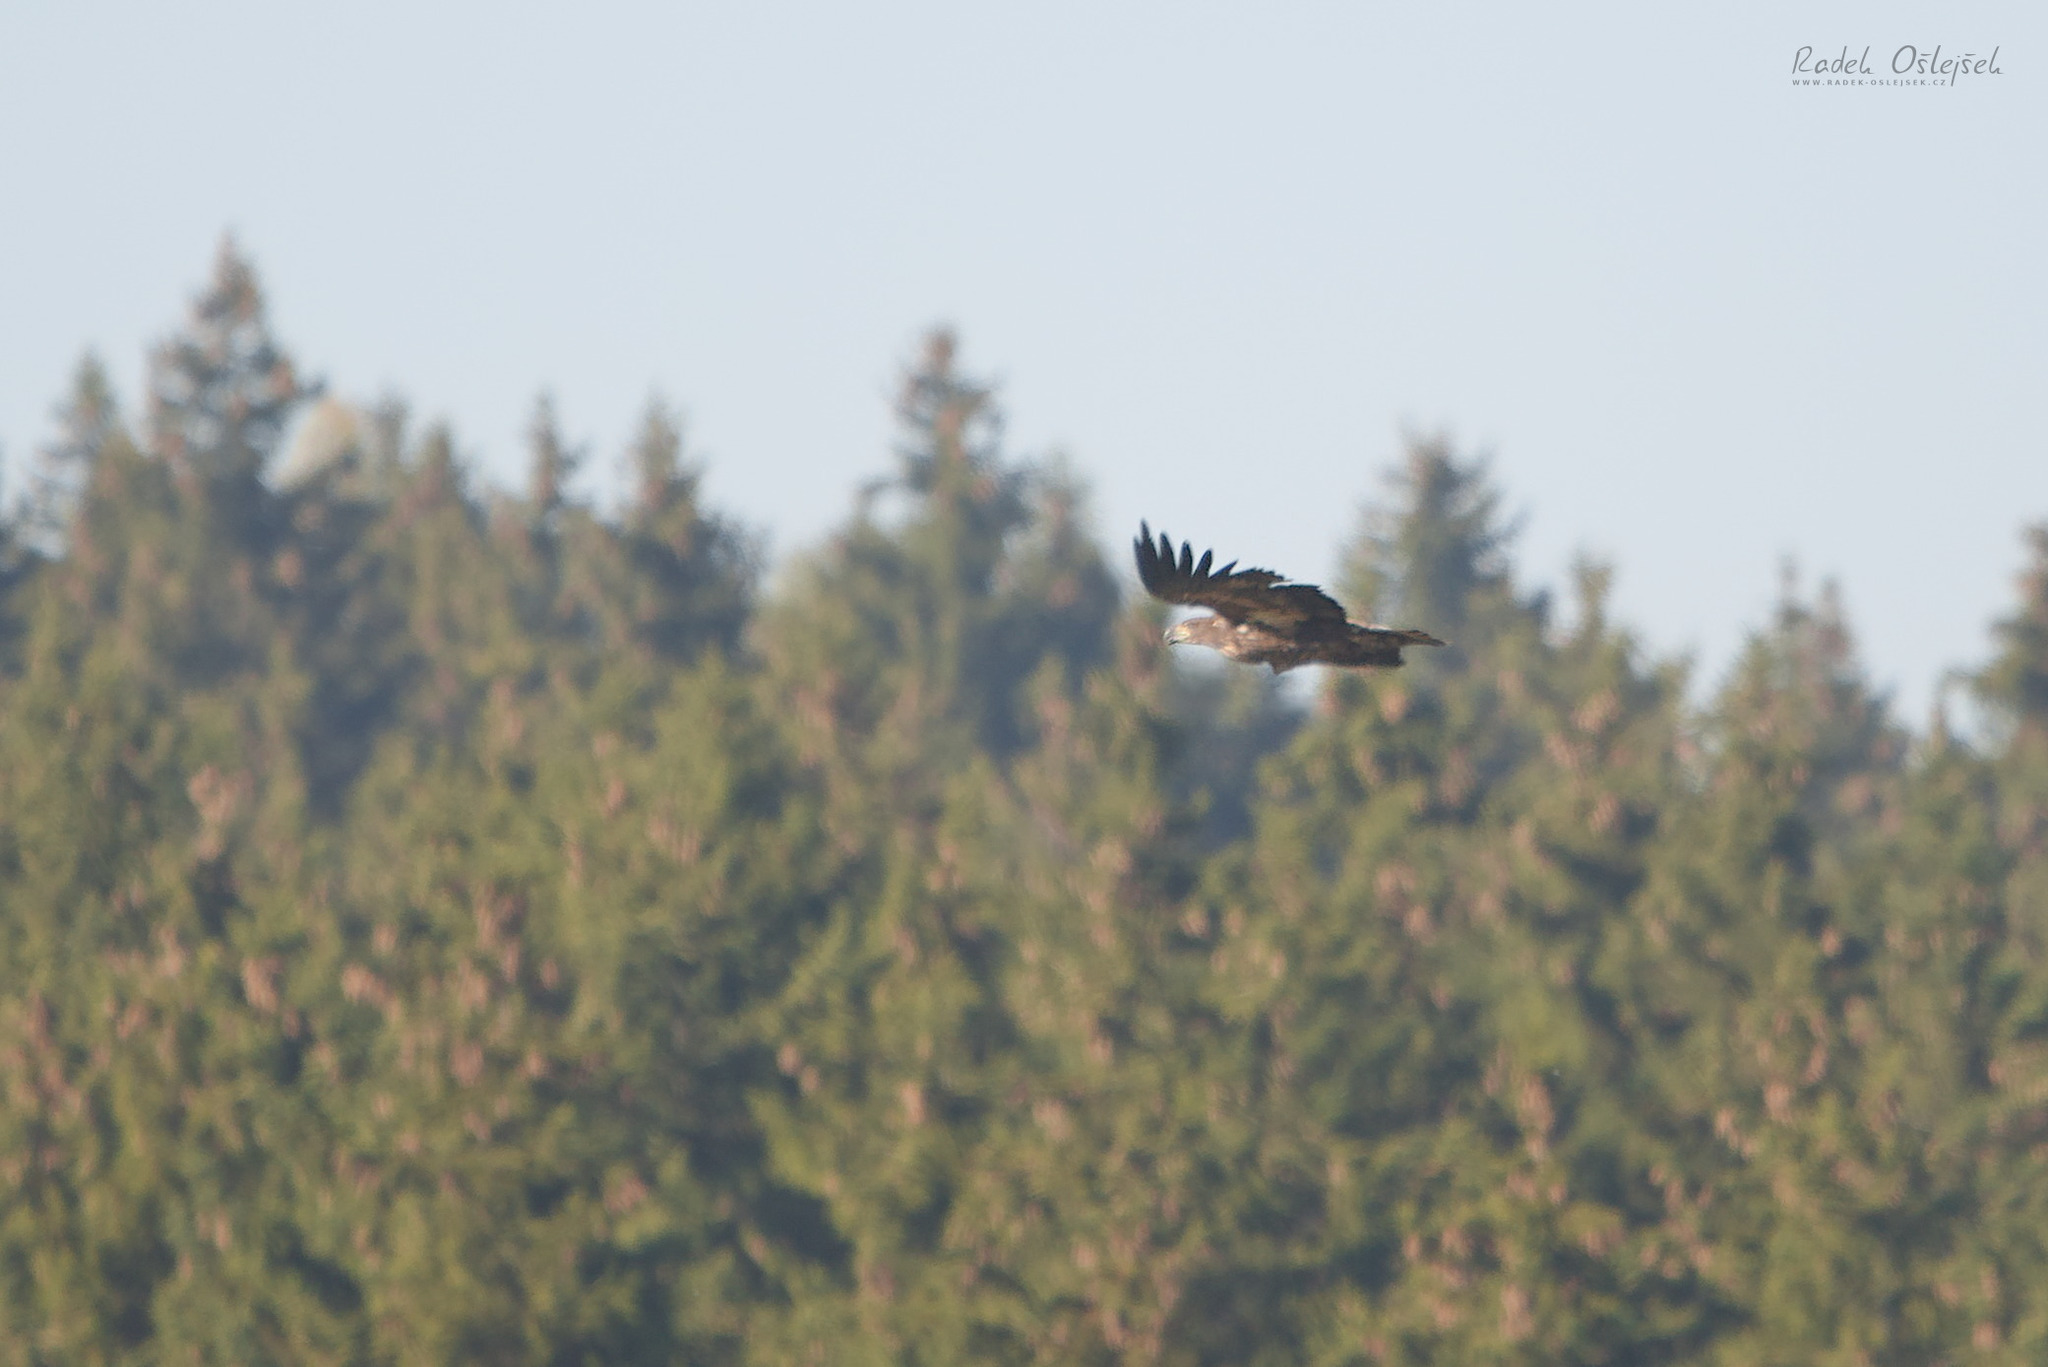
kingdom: Animalia
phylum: Chordata
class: Aves
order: Accipitriformes
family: Accipitridae
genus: Haliaeetus
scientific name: Haliaeetus albicilla
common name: White-tailed eagle
